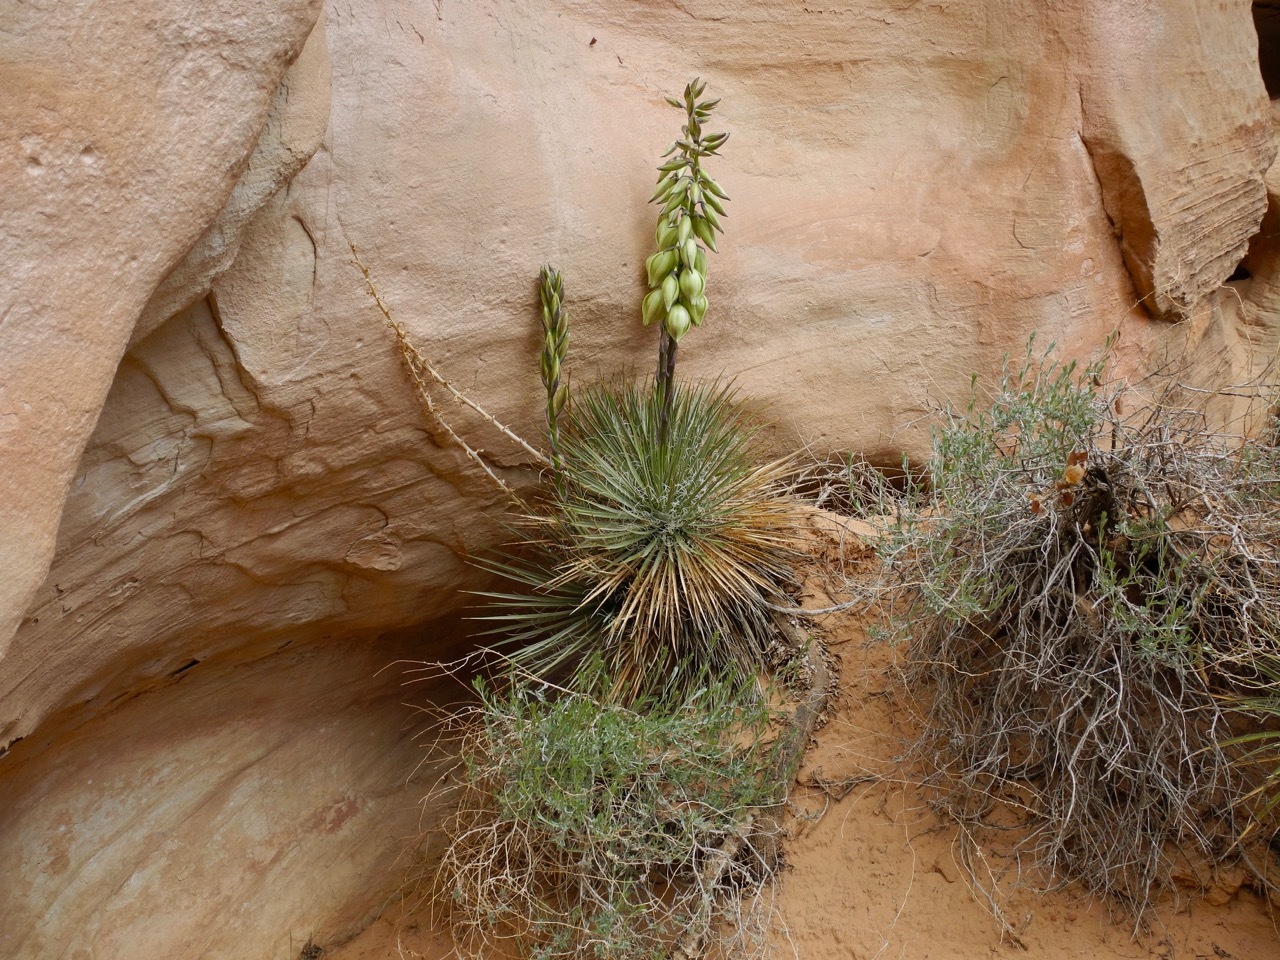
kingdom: Plantae
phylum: Tracheophyta
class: Liliopsida
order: Asparagales
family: Asparagaceae
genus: Yucca
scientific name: Yucca angustissima
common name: Narrowleaf yucca
